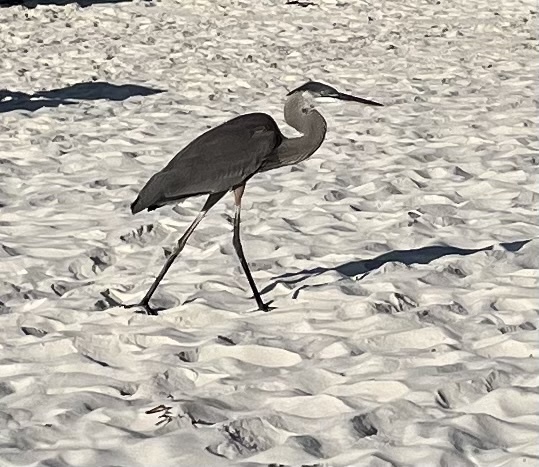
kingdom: Animalia
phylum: Chordata
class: Aves
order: Pelecaniformes
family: Ardeidae
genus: Ardea
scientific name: Ardea herodias
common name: Great blue heron
